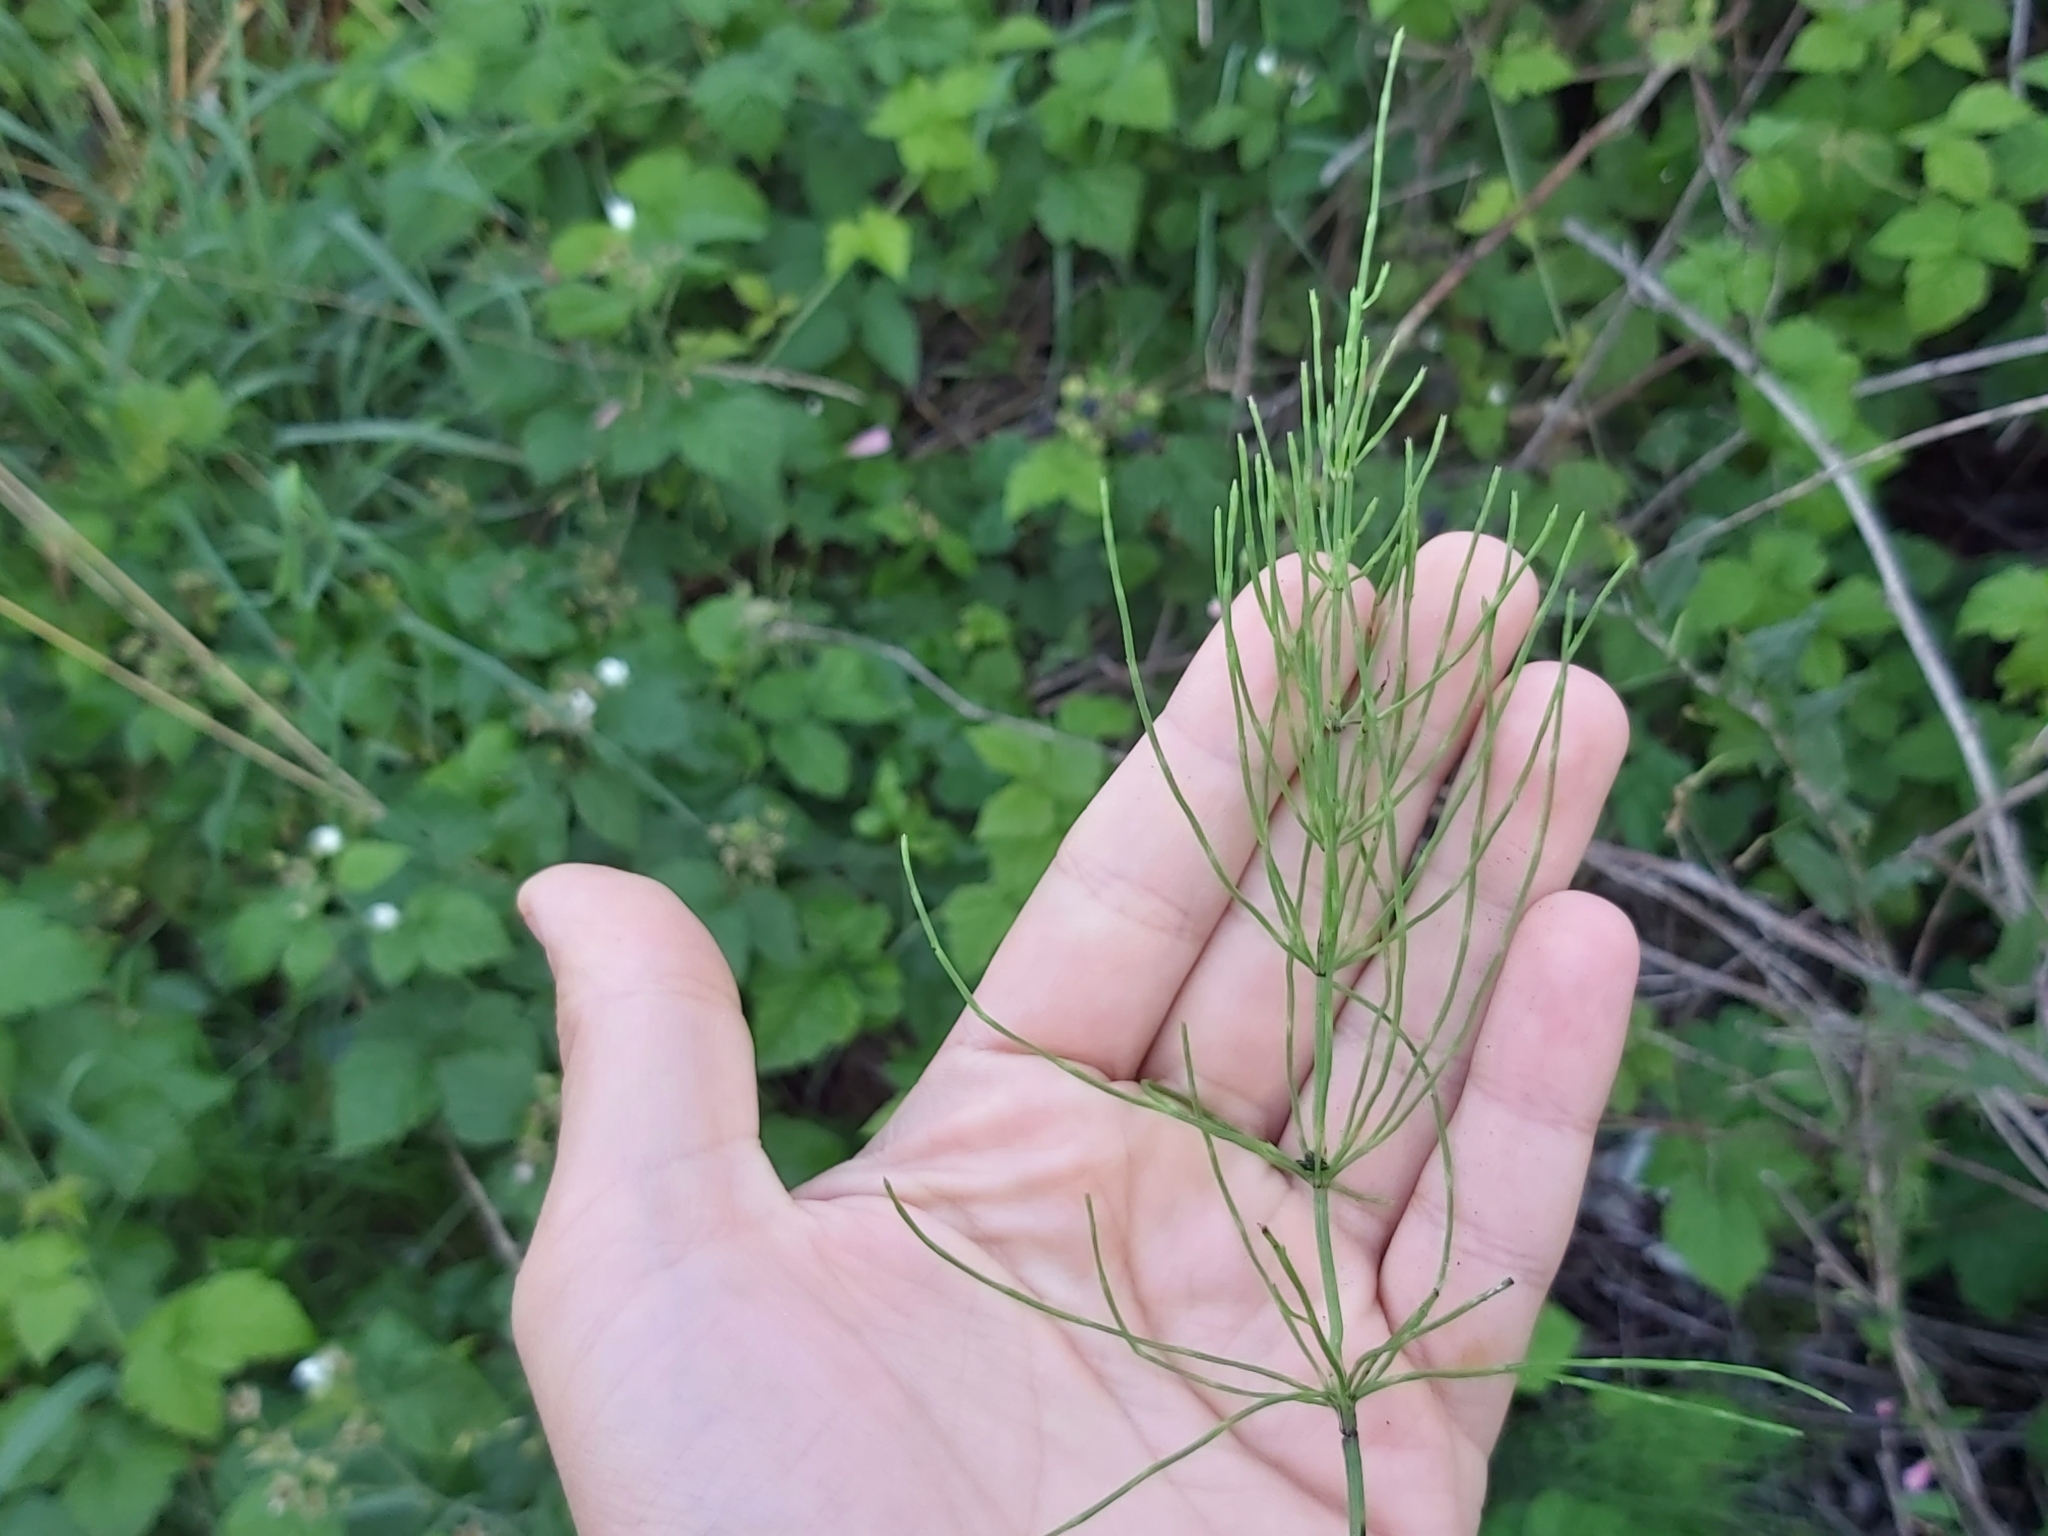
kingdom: Plantae
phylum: Tracheophyta
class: Polypodiopsida
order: Equisetales
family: Equisetaceae
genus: Equisetum
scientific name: Equisetum arvense
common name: Field horsetail
